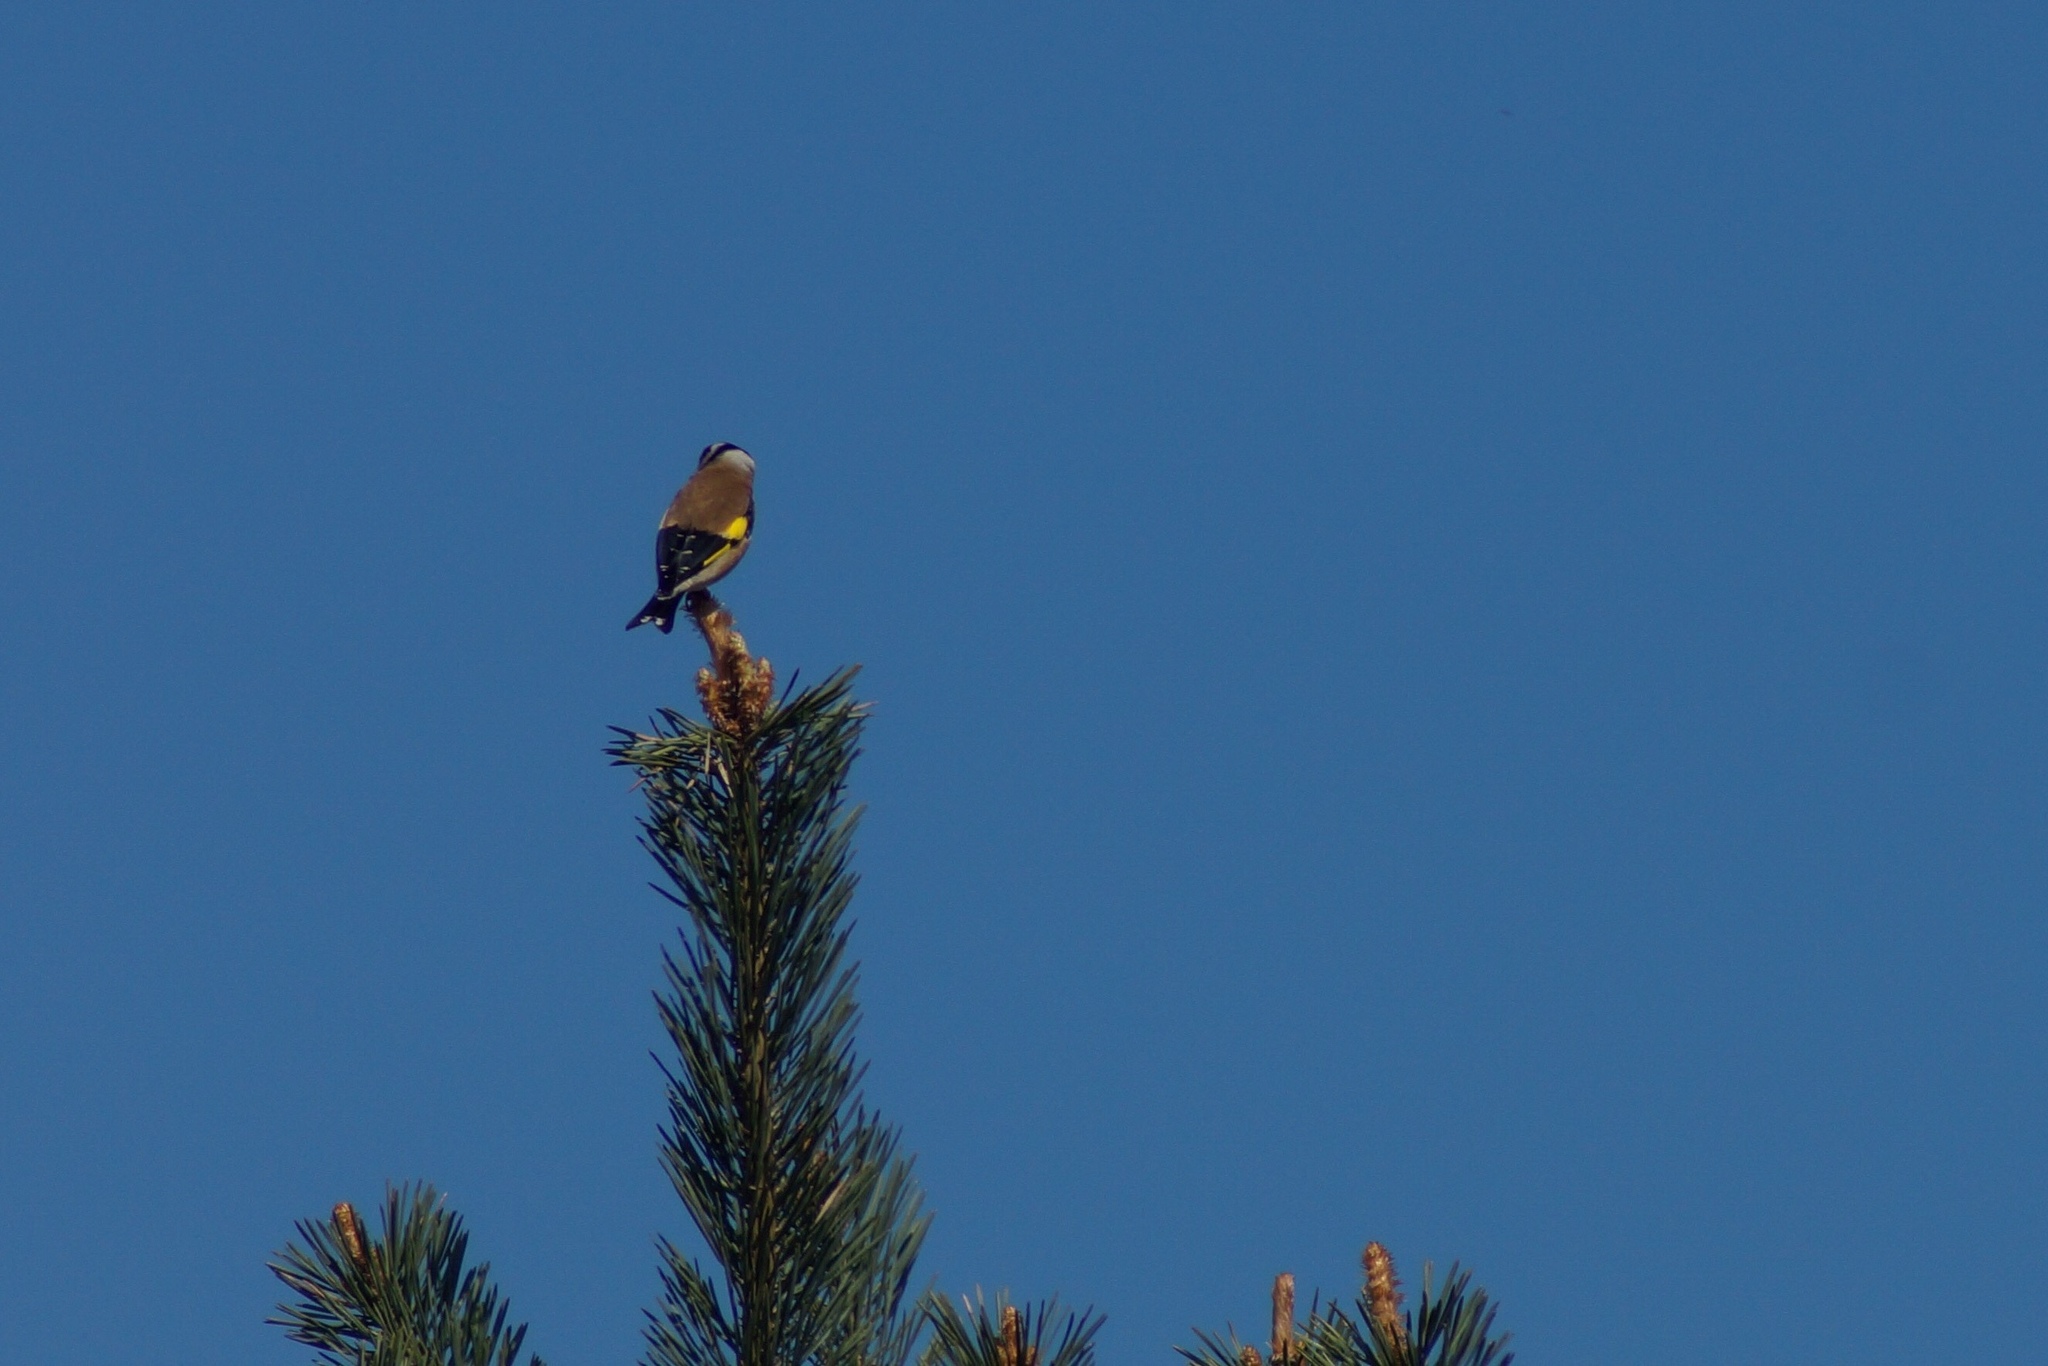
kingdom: Animalia
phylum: Chordata
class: Aves
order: Passeriformes
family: Fringillidae
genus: Carduelis
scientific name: Carduelis carduelis
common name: European goldfinch
